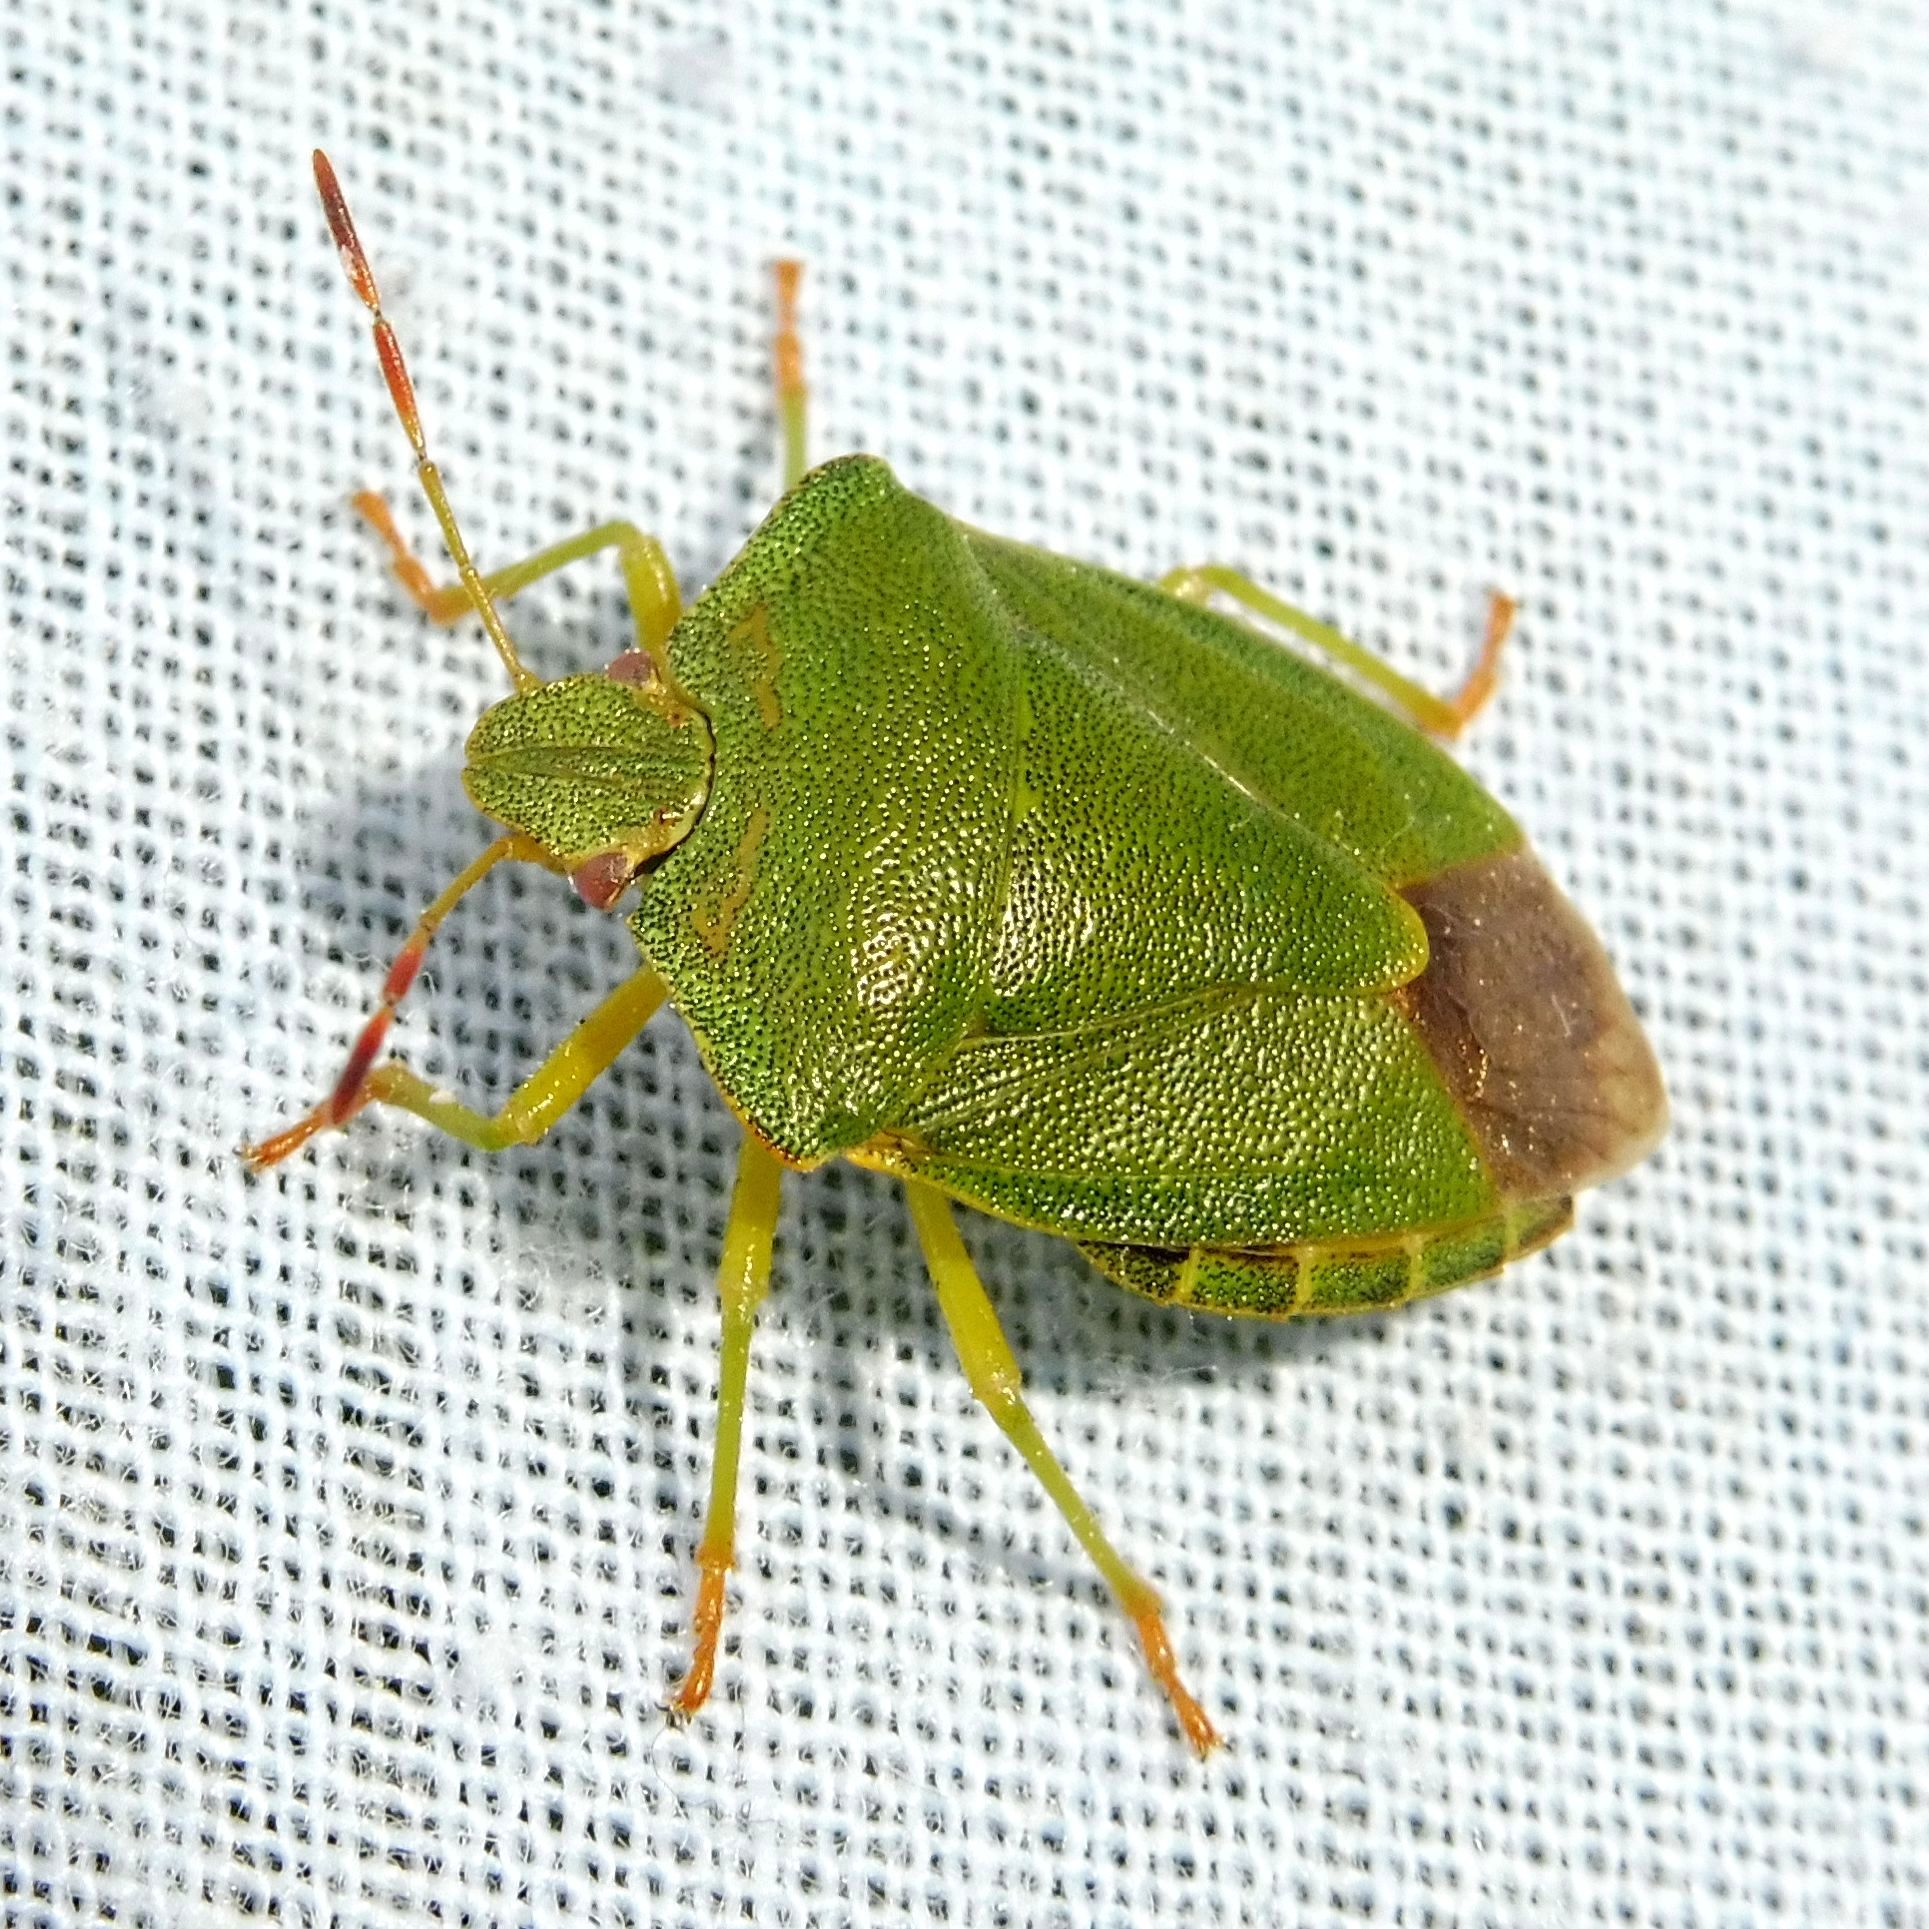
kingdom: Animalia
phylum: Arthropoda
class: Insecta
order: Hemiptera
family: Pentatomidae
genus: Palomena
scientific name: Palomena prasina
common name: Green shieldbug
